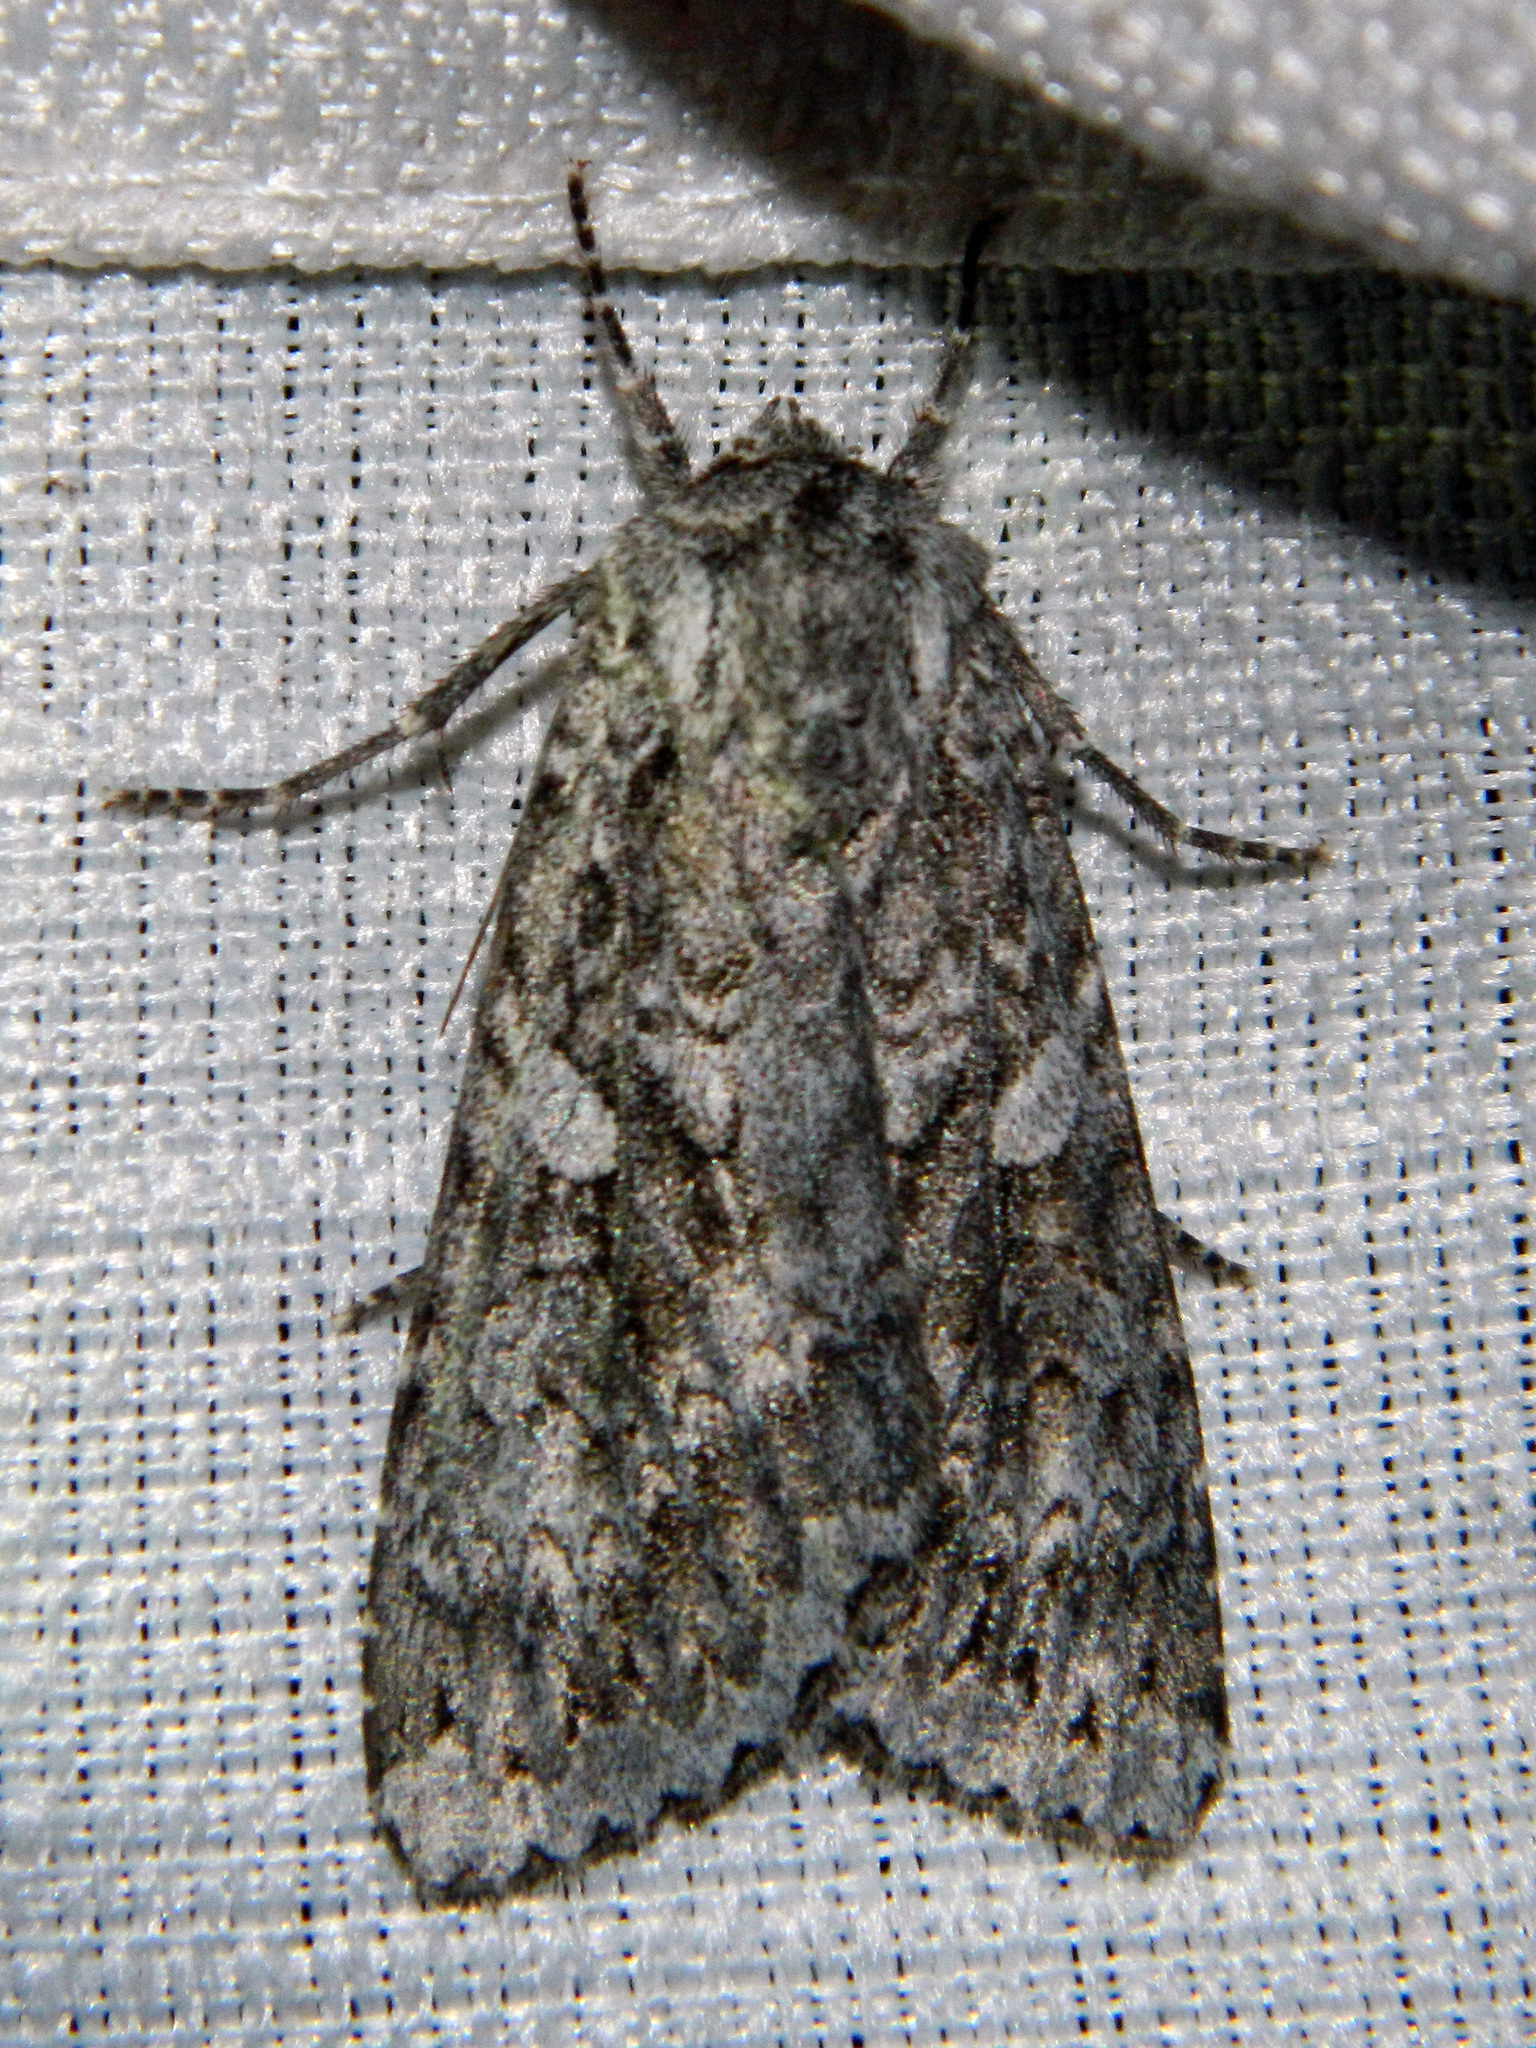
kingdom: Animalia
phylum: Arthropoda
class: Insecta
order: Lepidoptera
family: Noctuidae
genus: Eurois
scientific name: Eurois occulta
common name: Great brocade
